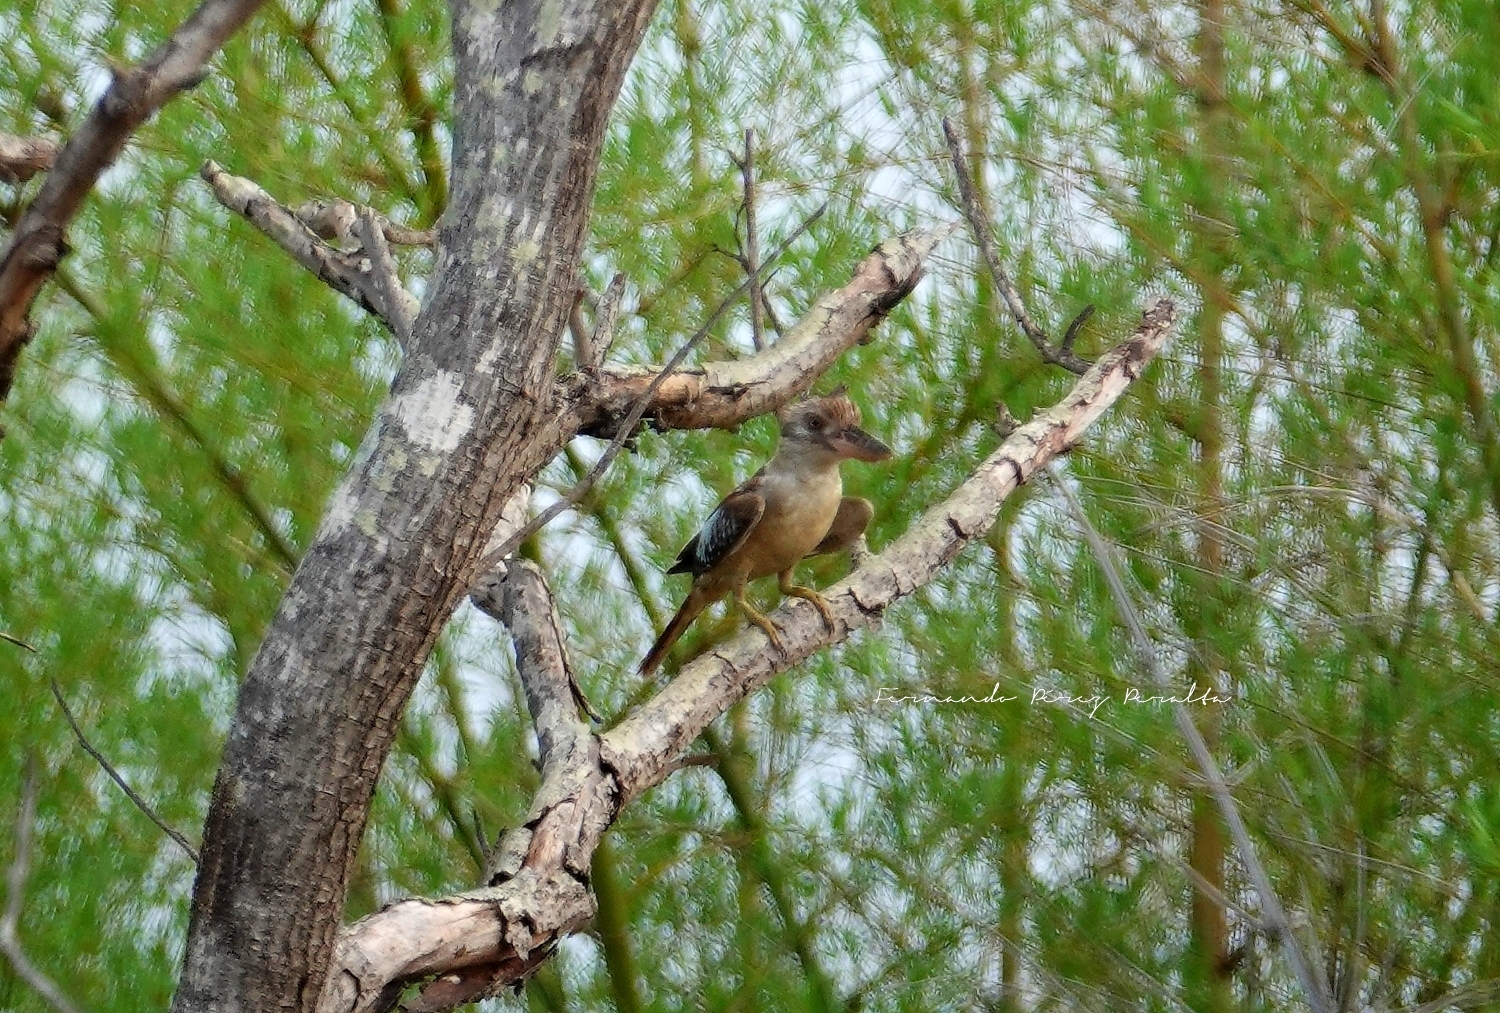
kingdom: Animalia
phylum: Chordata
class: Aves
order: Coraciiformes
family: Alcedinidae
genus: Dacelo
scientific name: Dacelo leachii
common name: Blue-winged kookaburra
